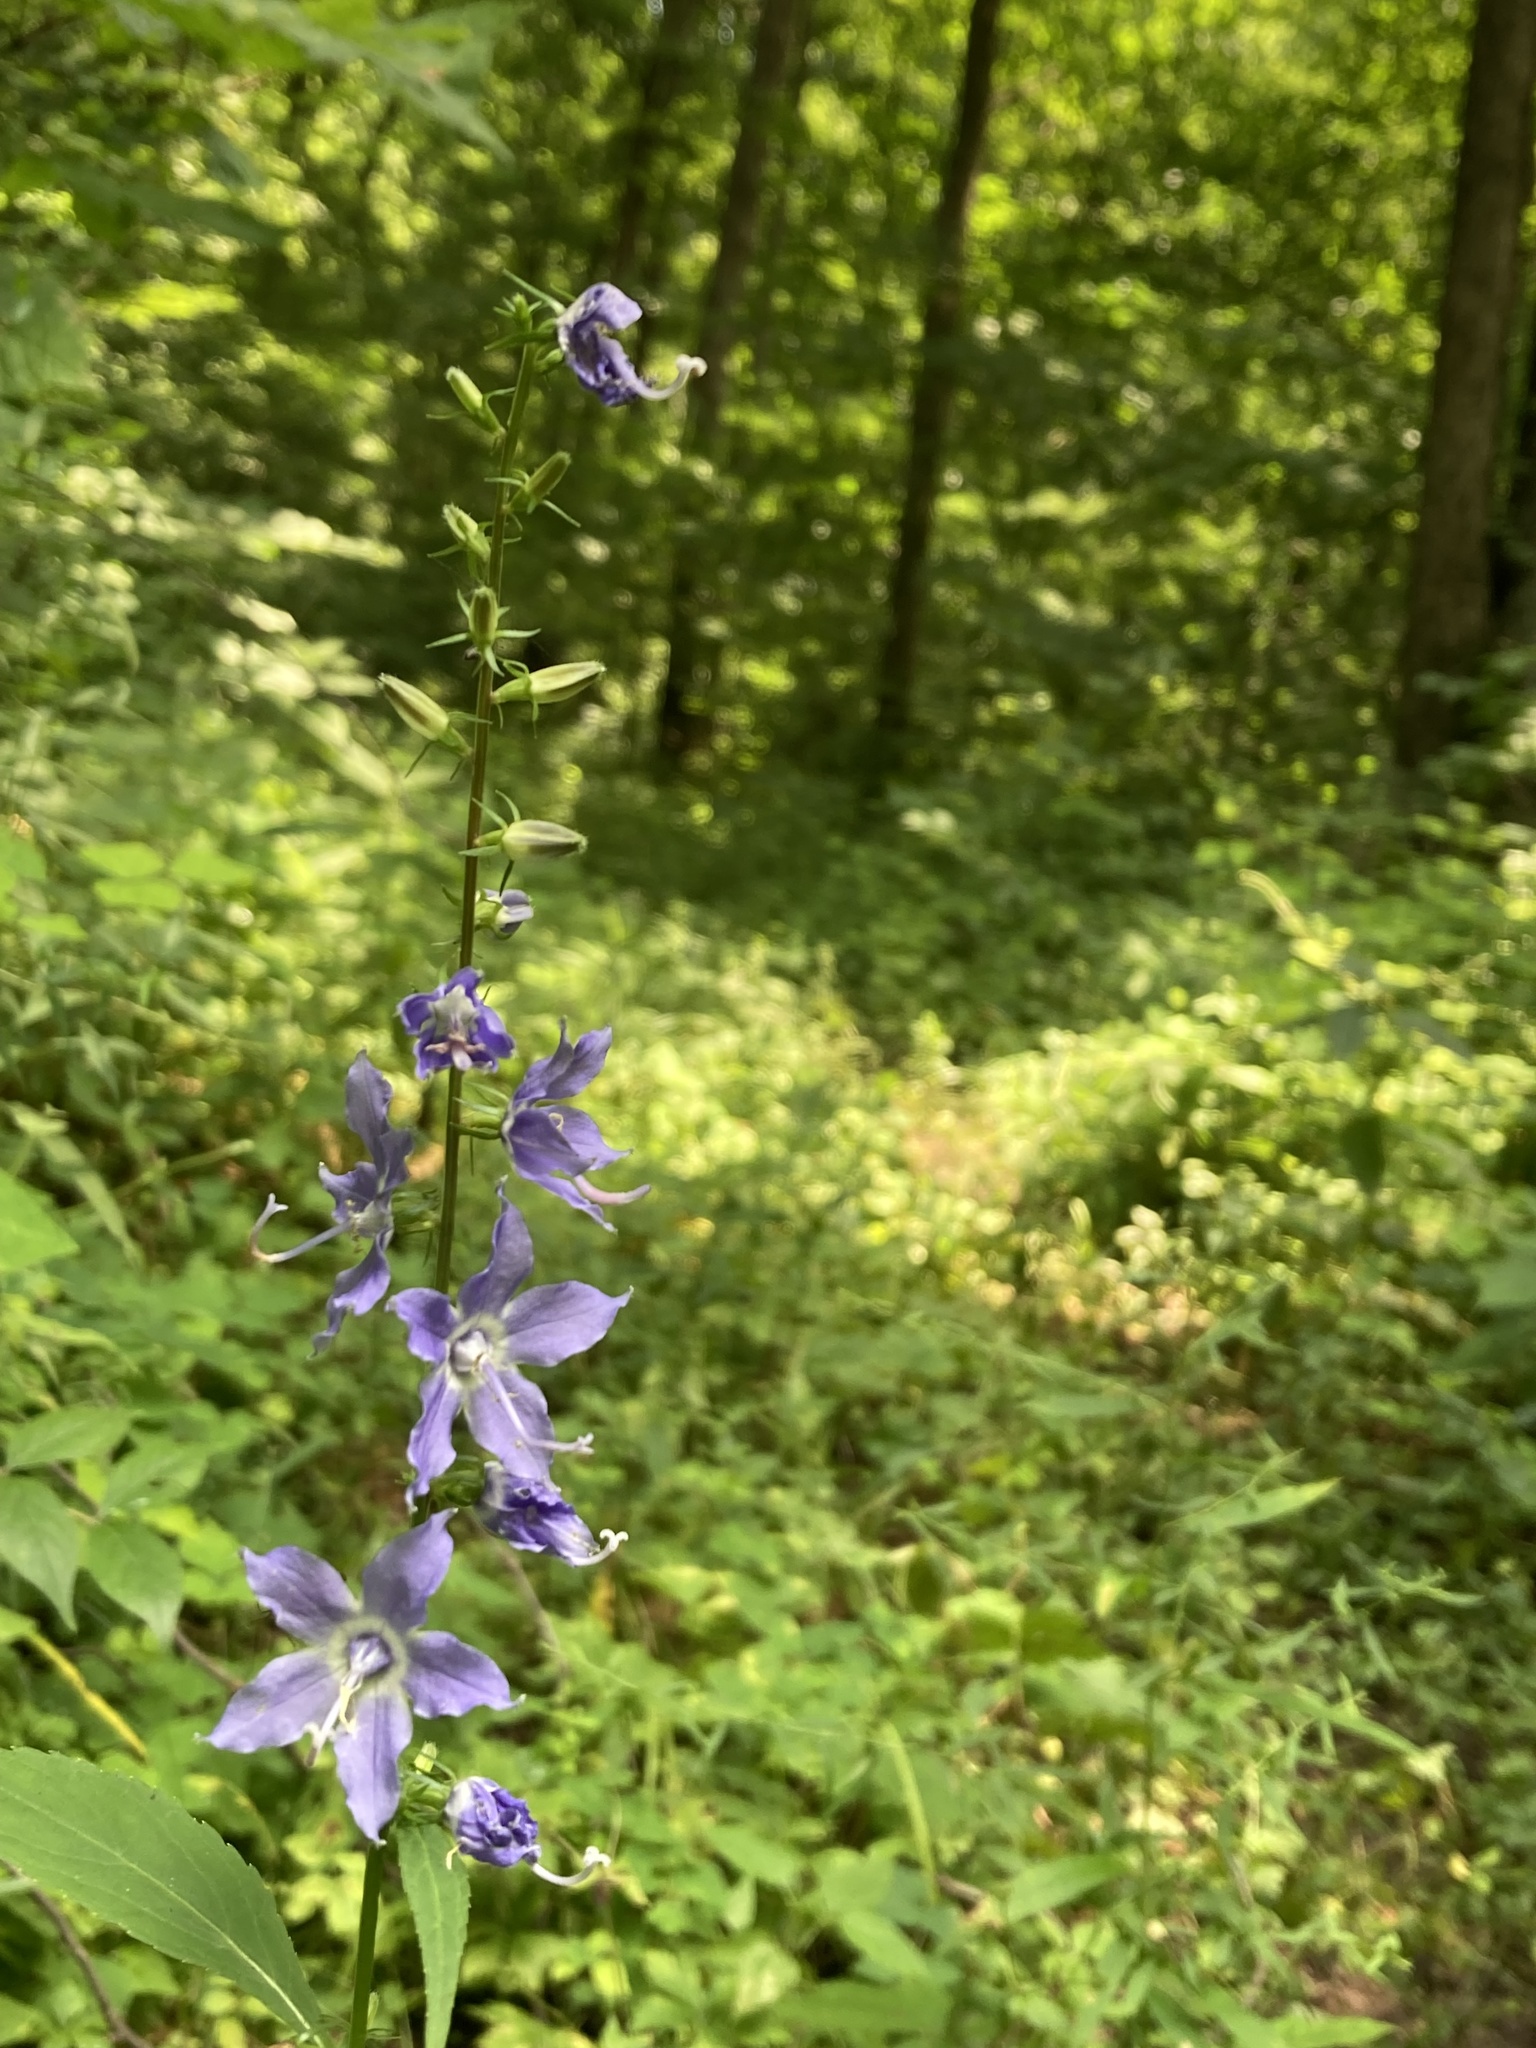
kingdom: Plantae
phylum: Tracheophyta
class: Magnoliopsida
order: Asterales
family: Campanulaceae
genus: Campanulastrum
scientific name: Campanulastrum americanum
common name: American bellflower
